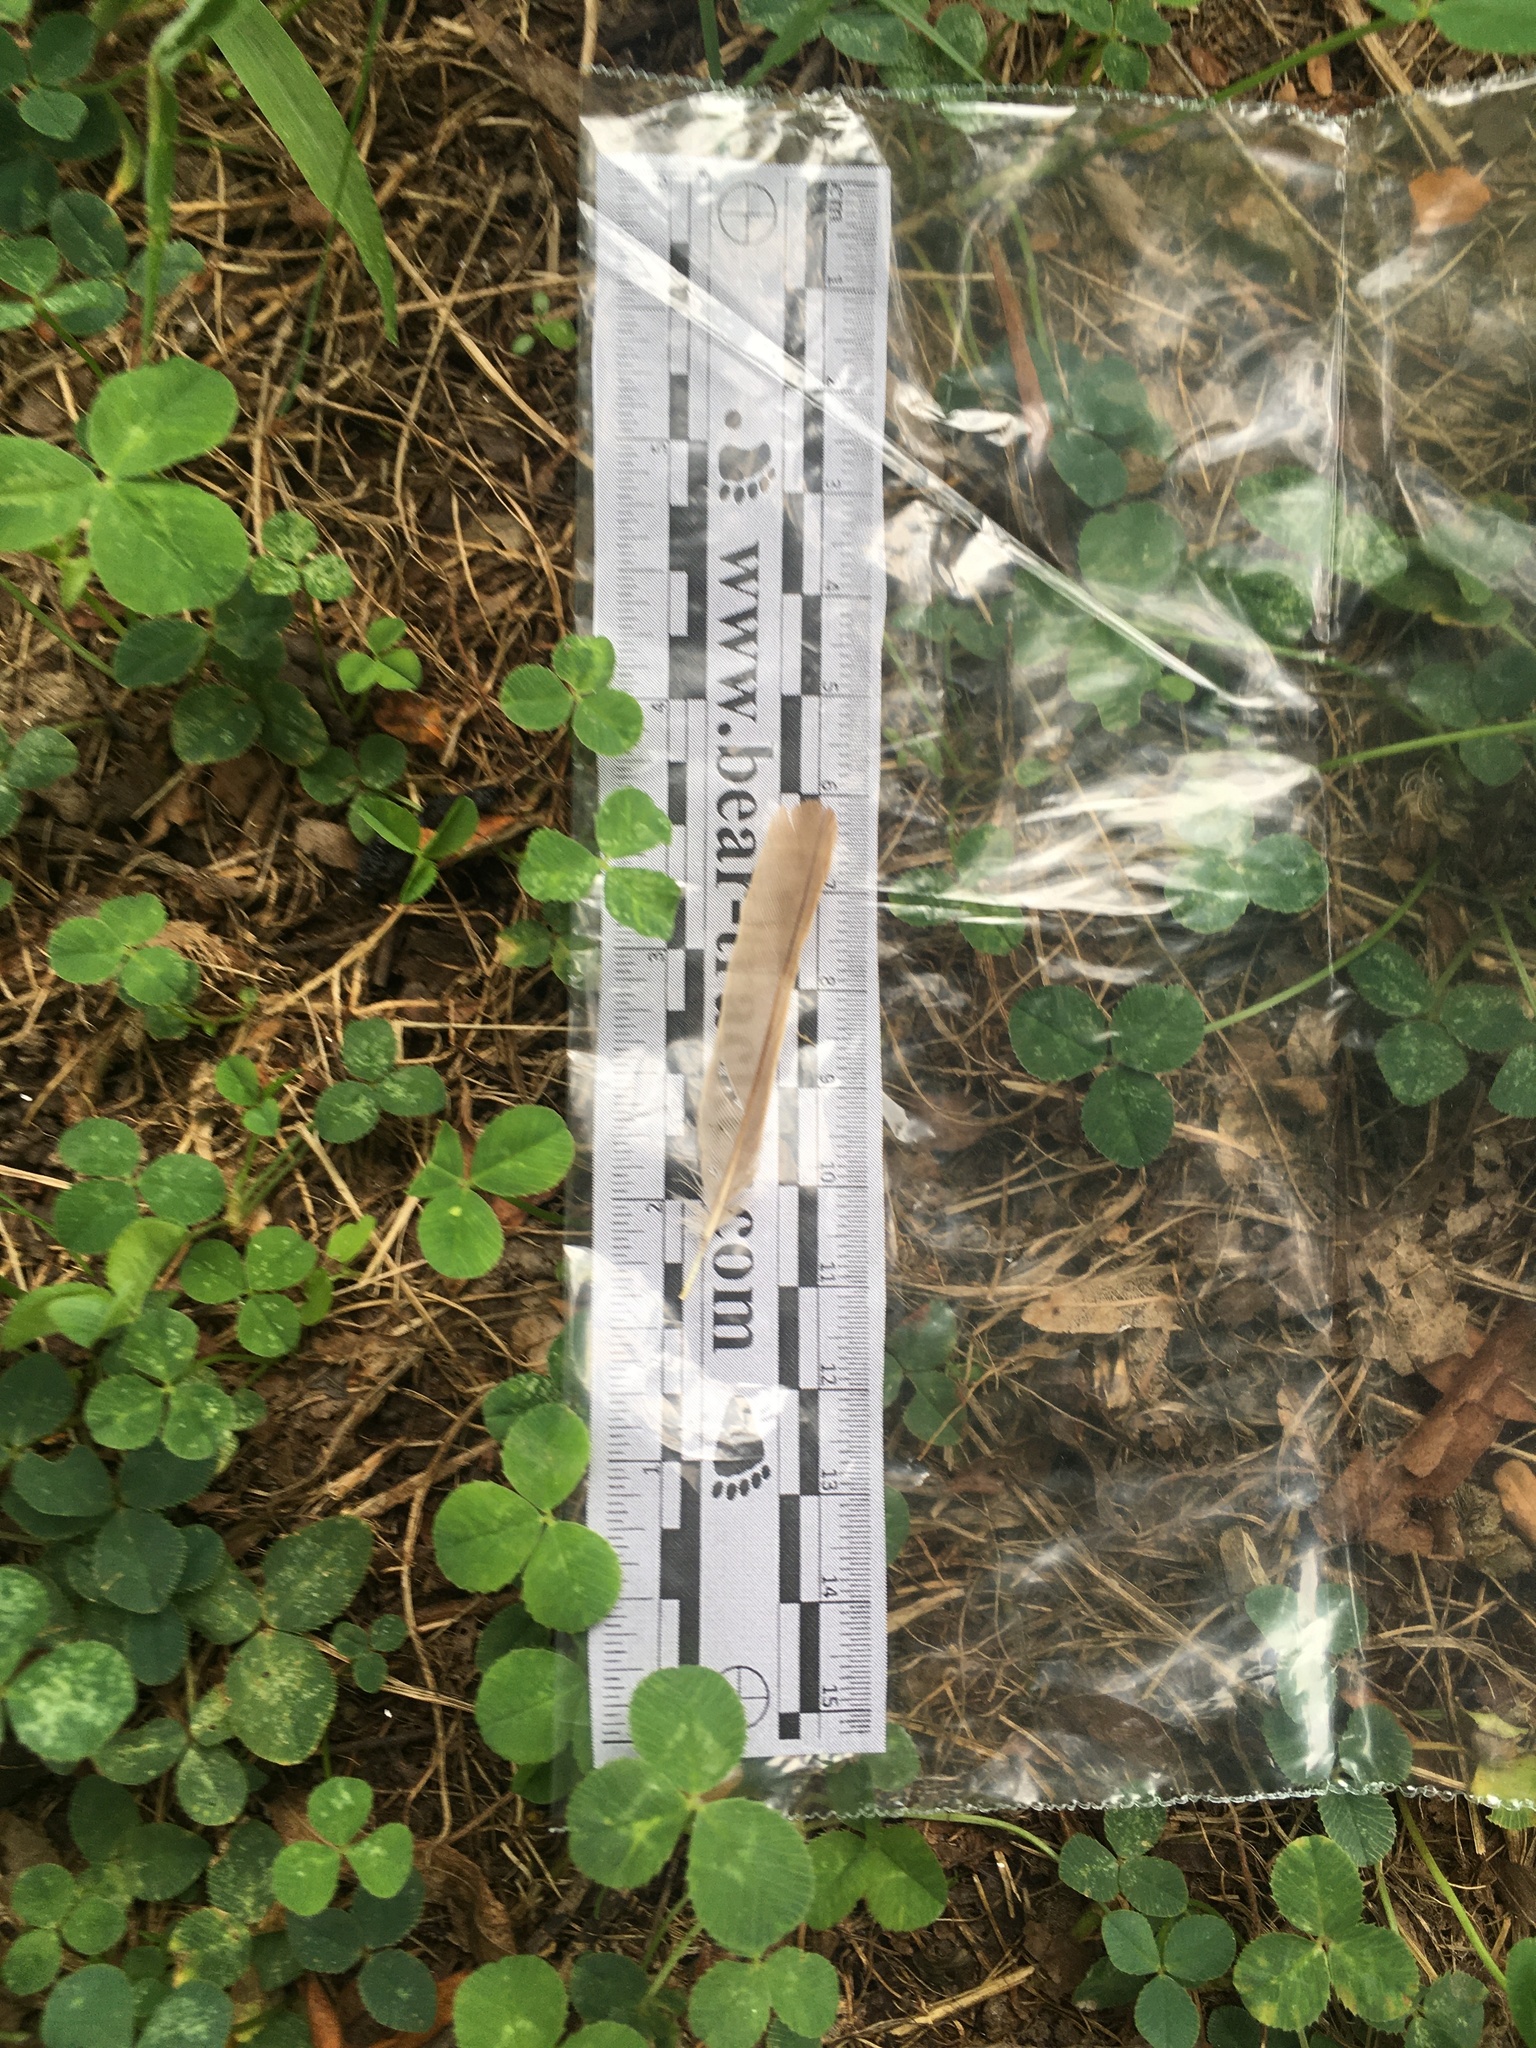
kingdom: Animalia
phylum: Chordata
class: Aves
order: Passeriformes
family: Passeridae
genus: Passer
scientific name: Passer domesticus
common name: House sparrow
